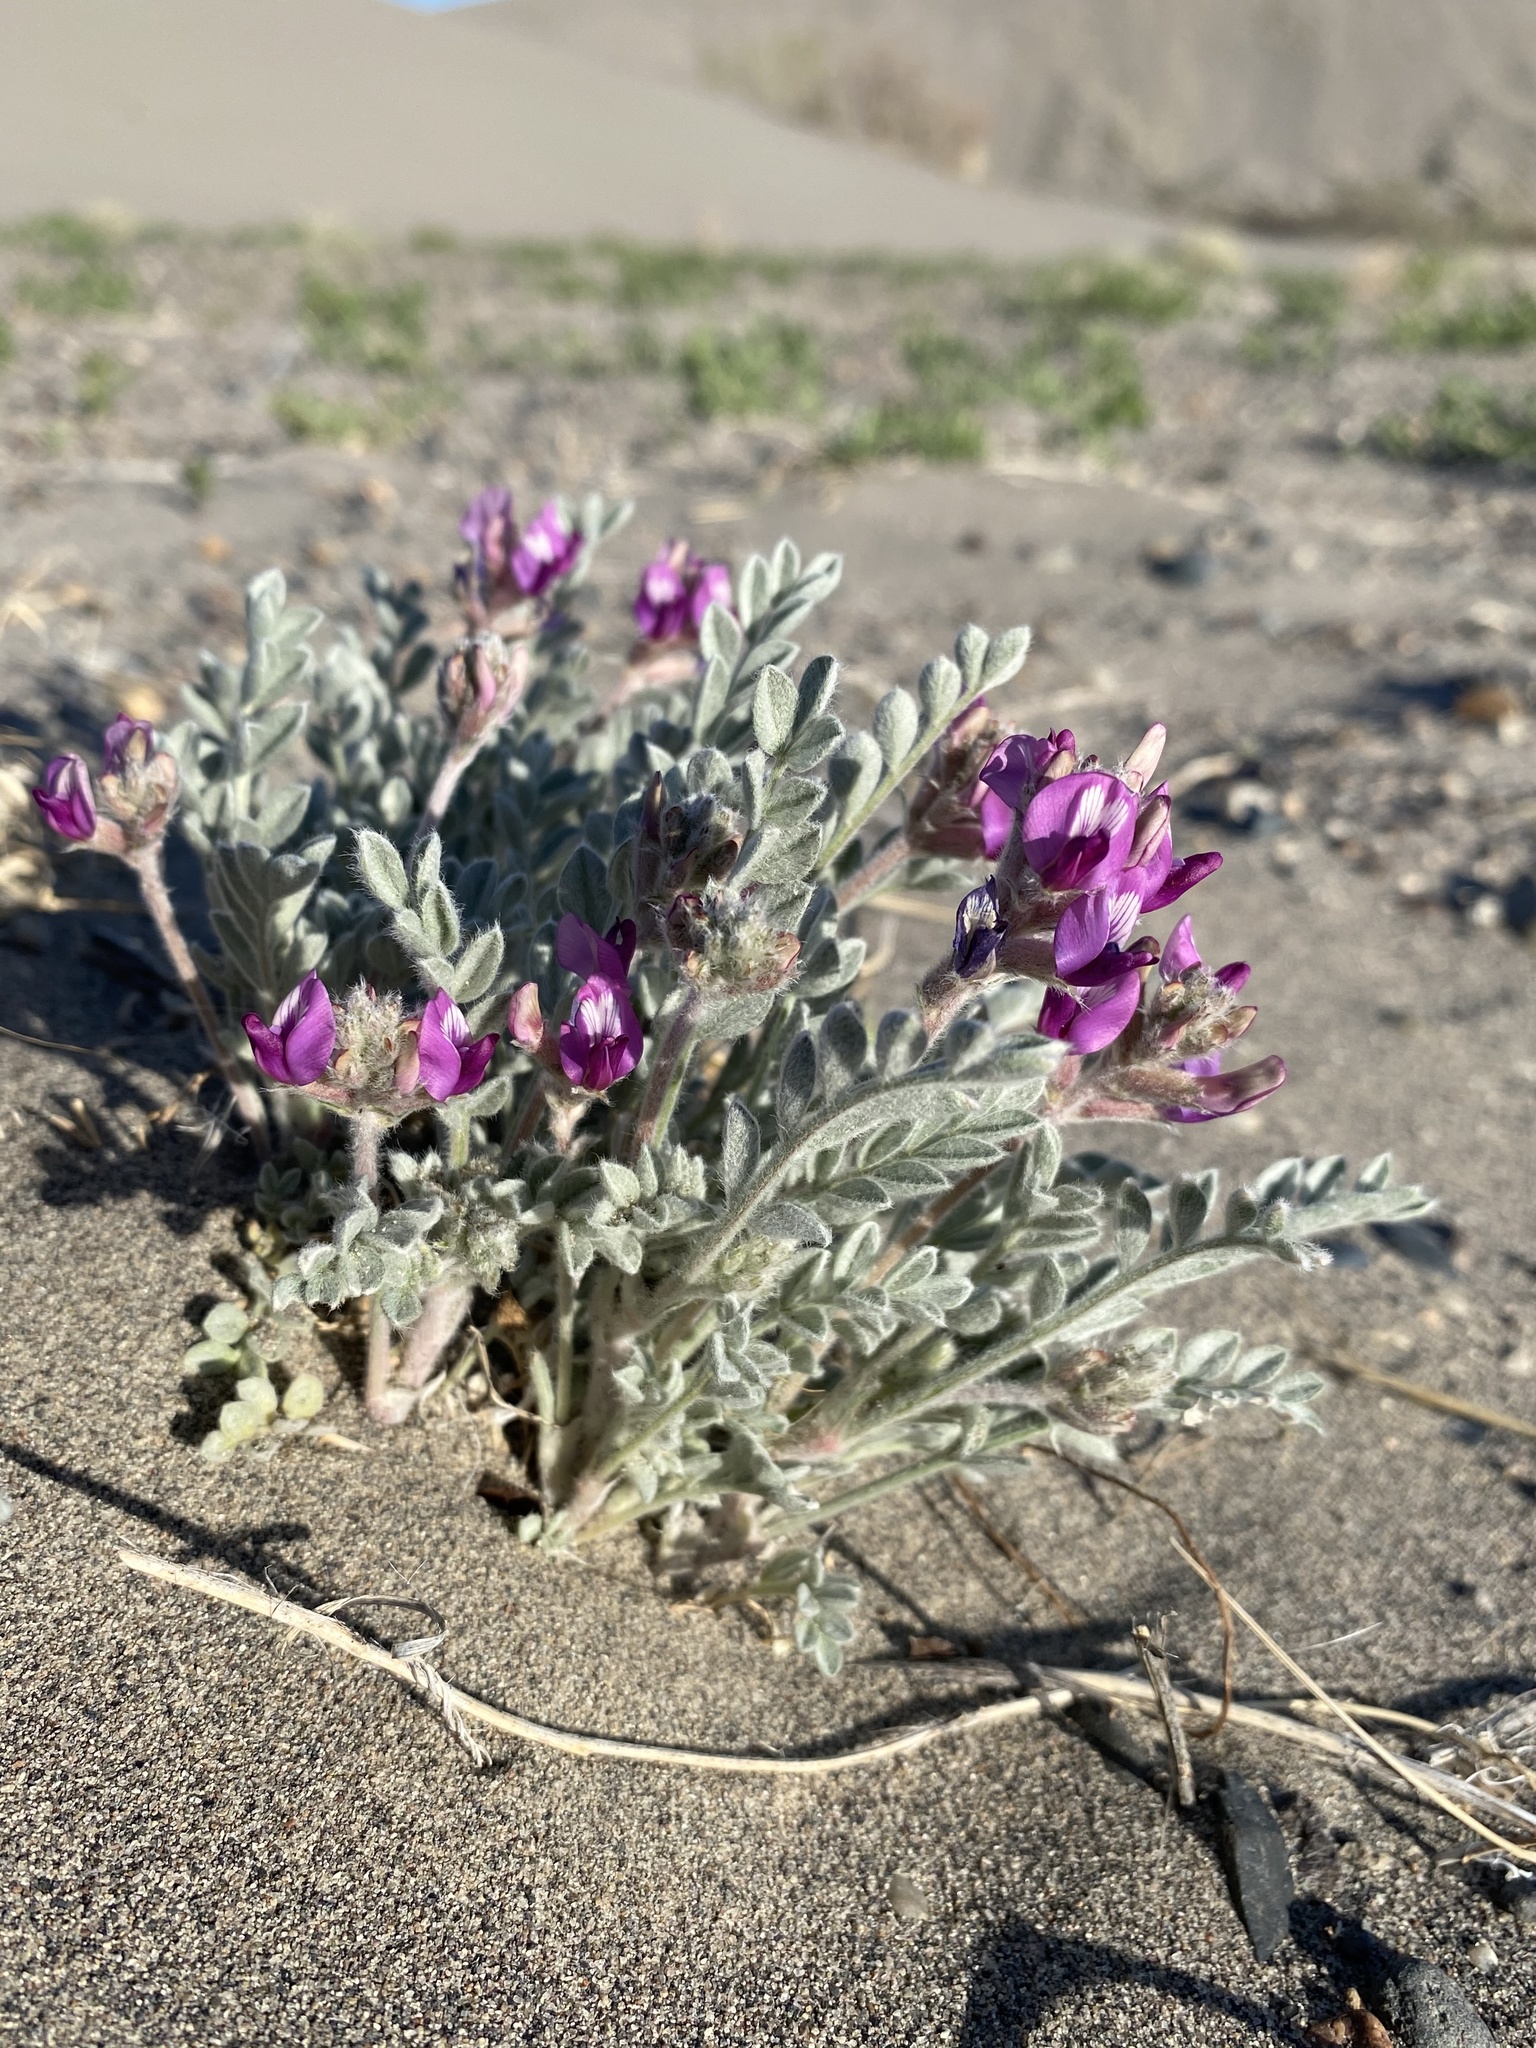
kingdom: Plantae
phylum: Tracheophyta
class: Magnoliopsida
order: Fabales
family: Fabaceae
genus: Astragalus
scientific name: Astragalus purshii
